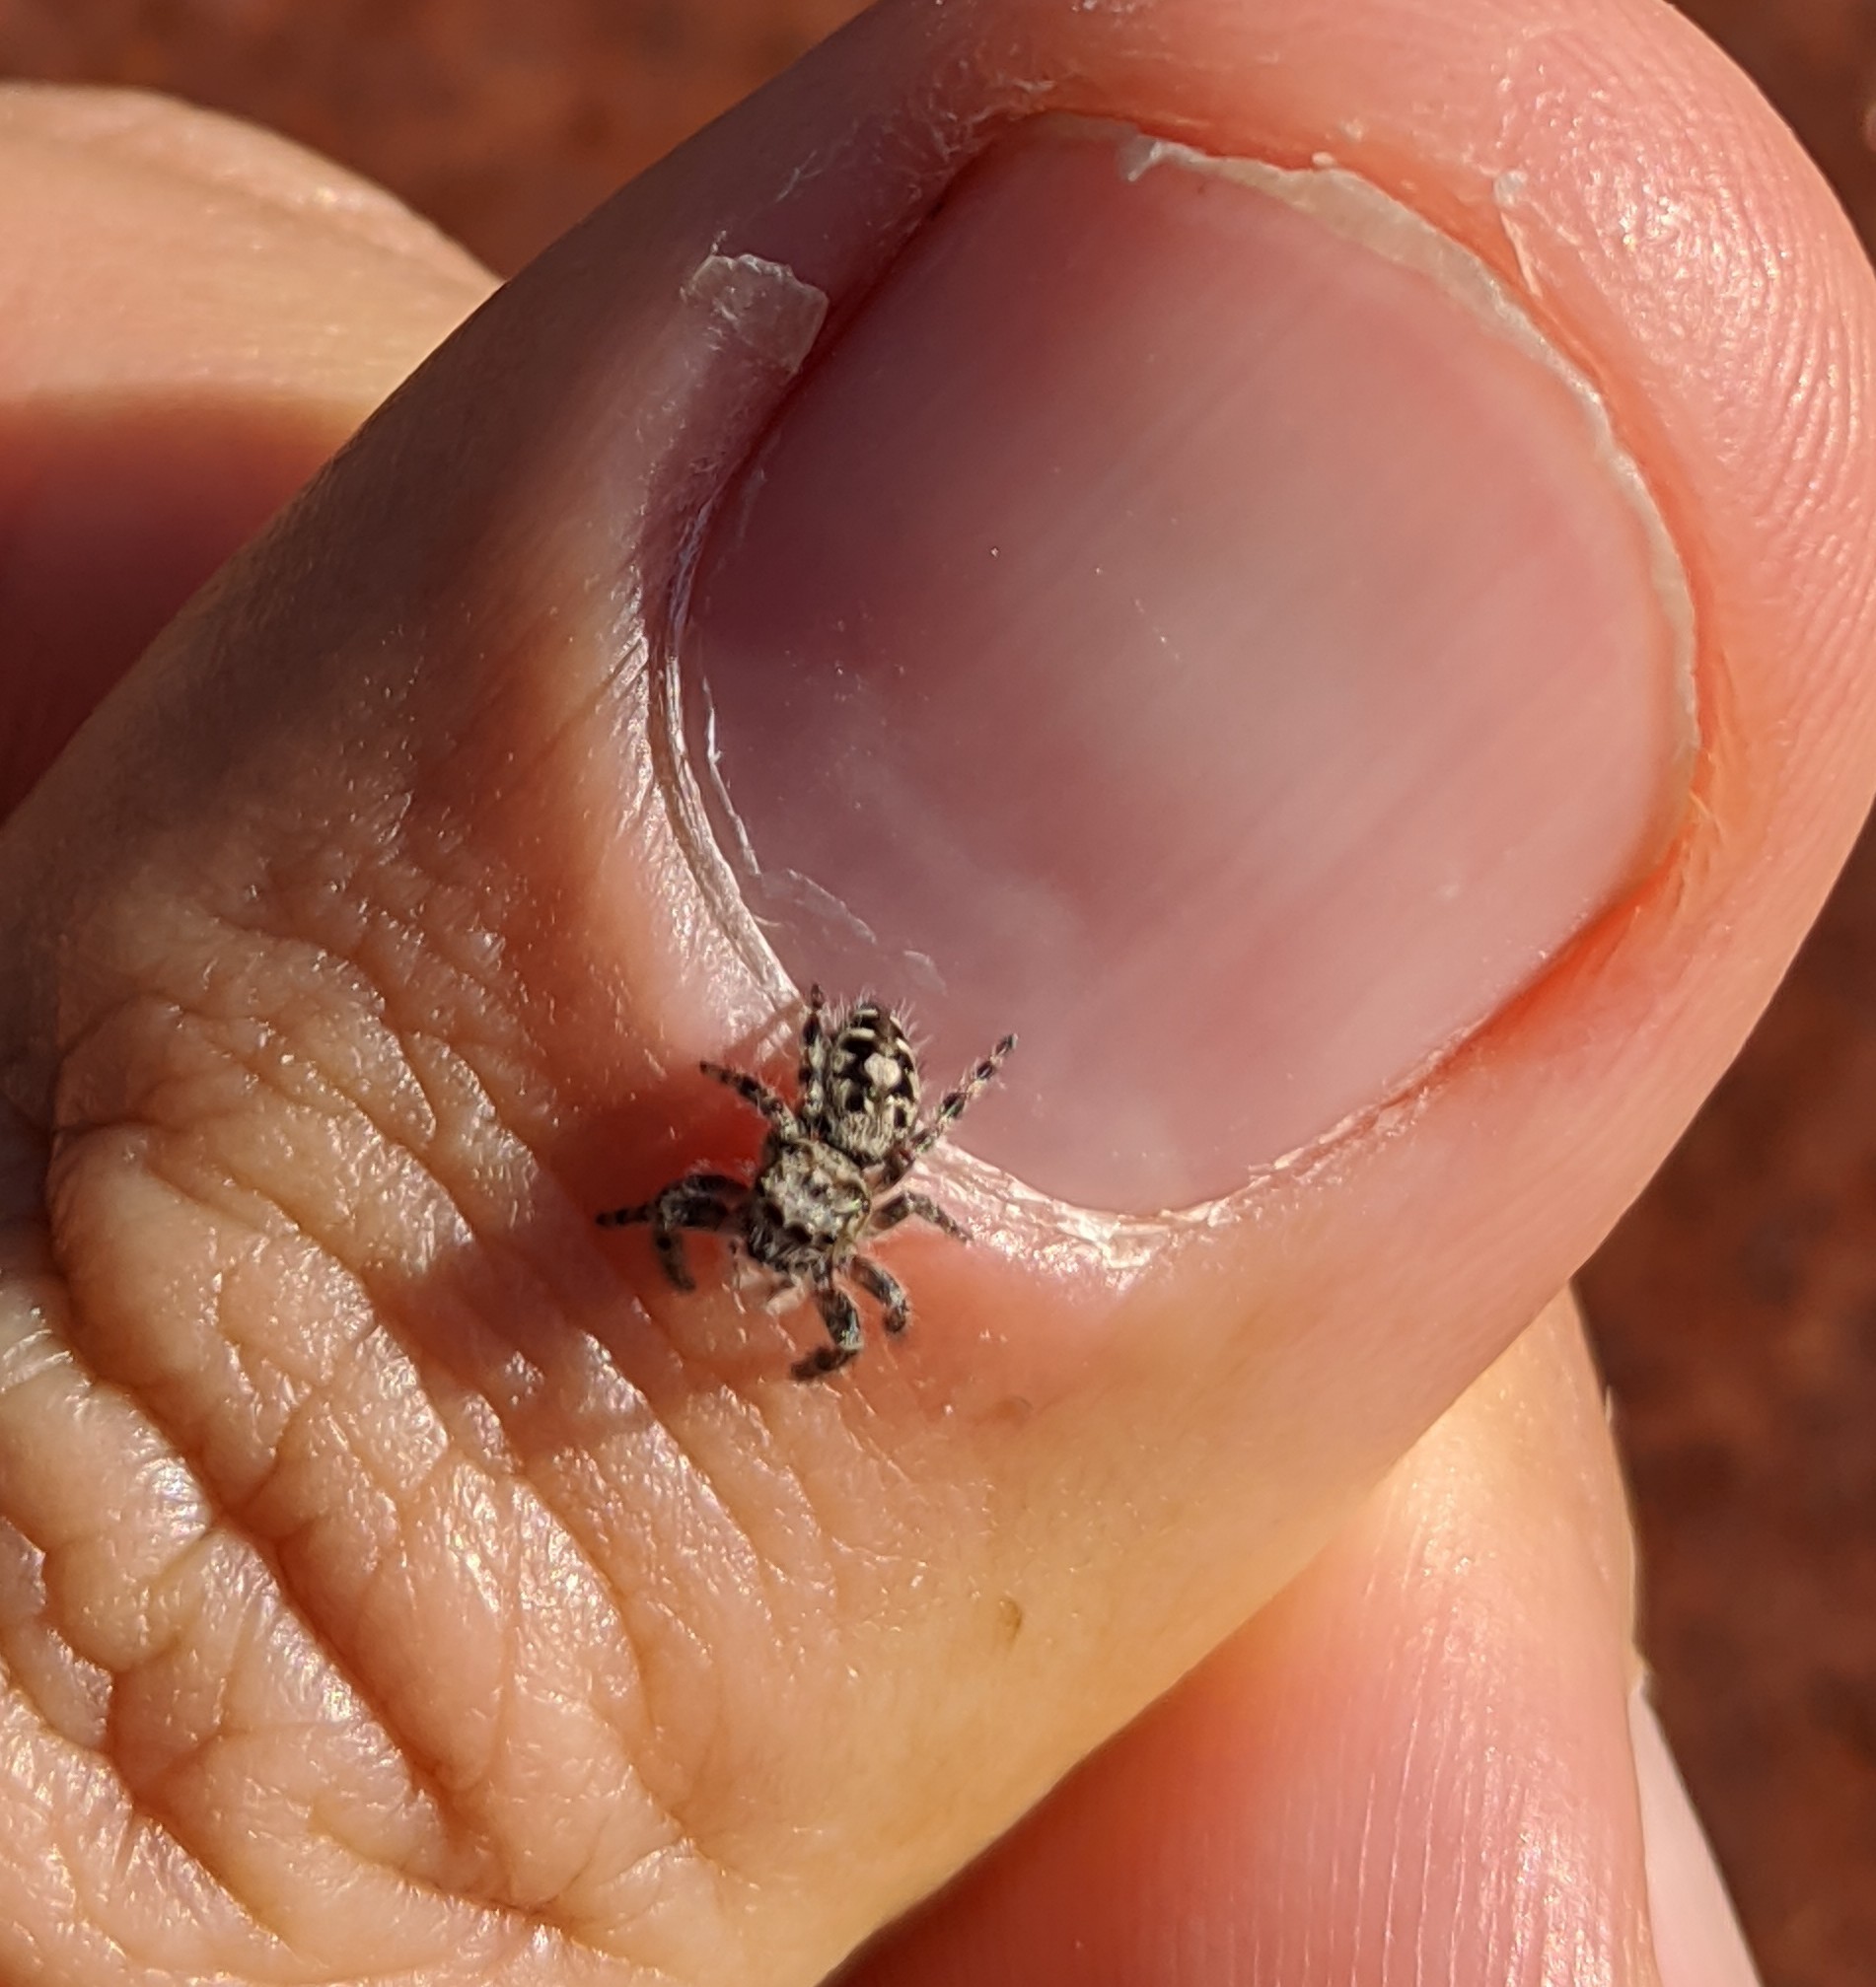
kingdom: Animalia
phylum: Arthropoda
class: Arachnida
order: Araneae
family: Salticidae
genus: Phidippus
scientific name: Phidippus putnami
